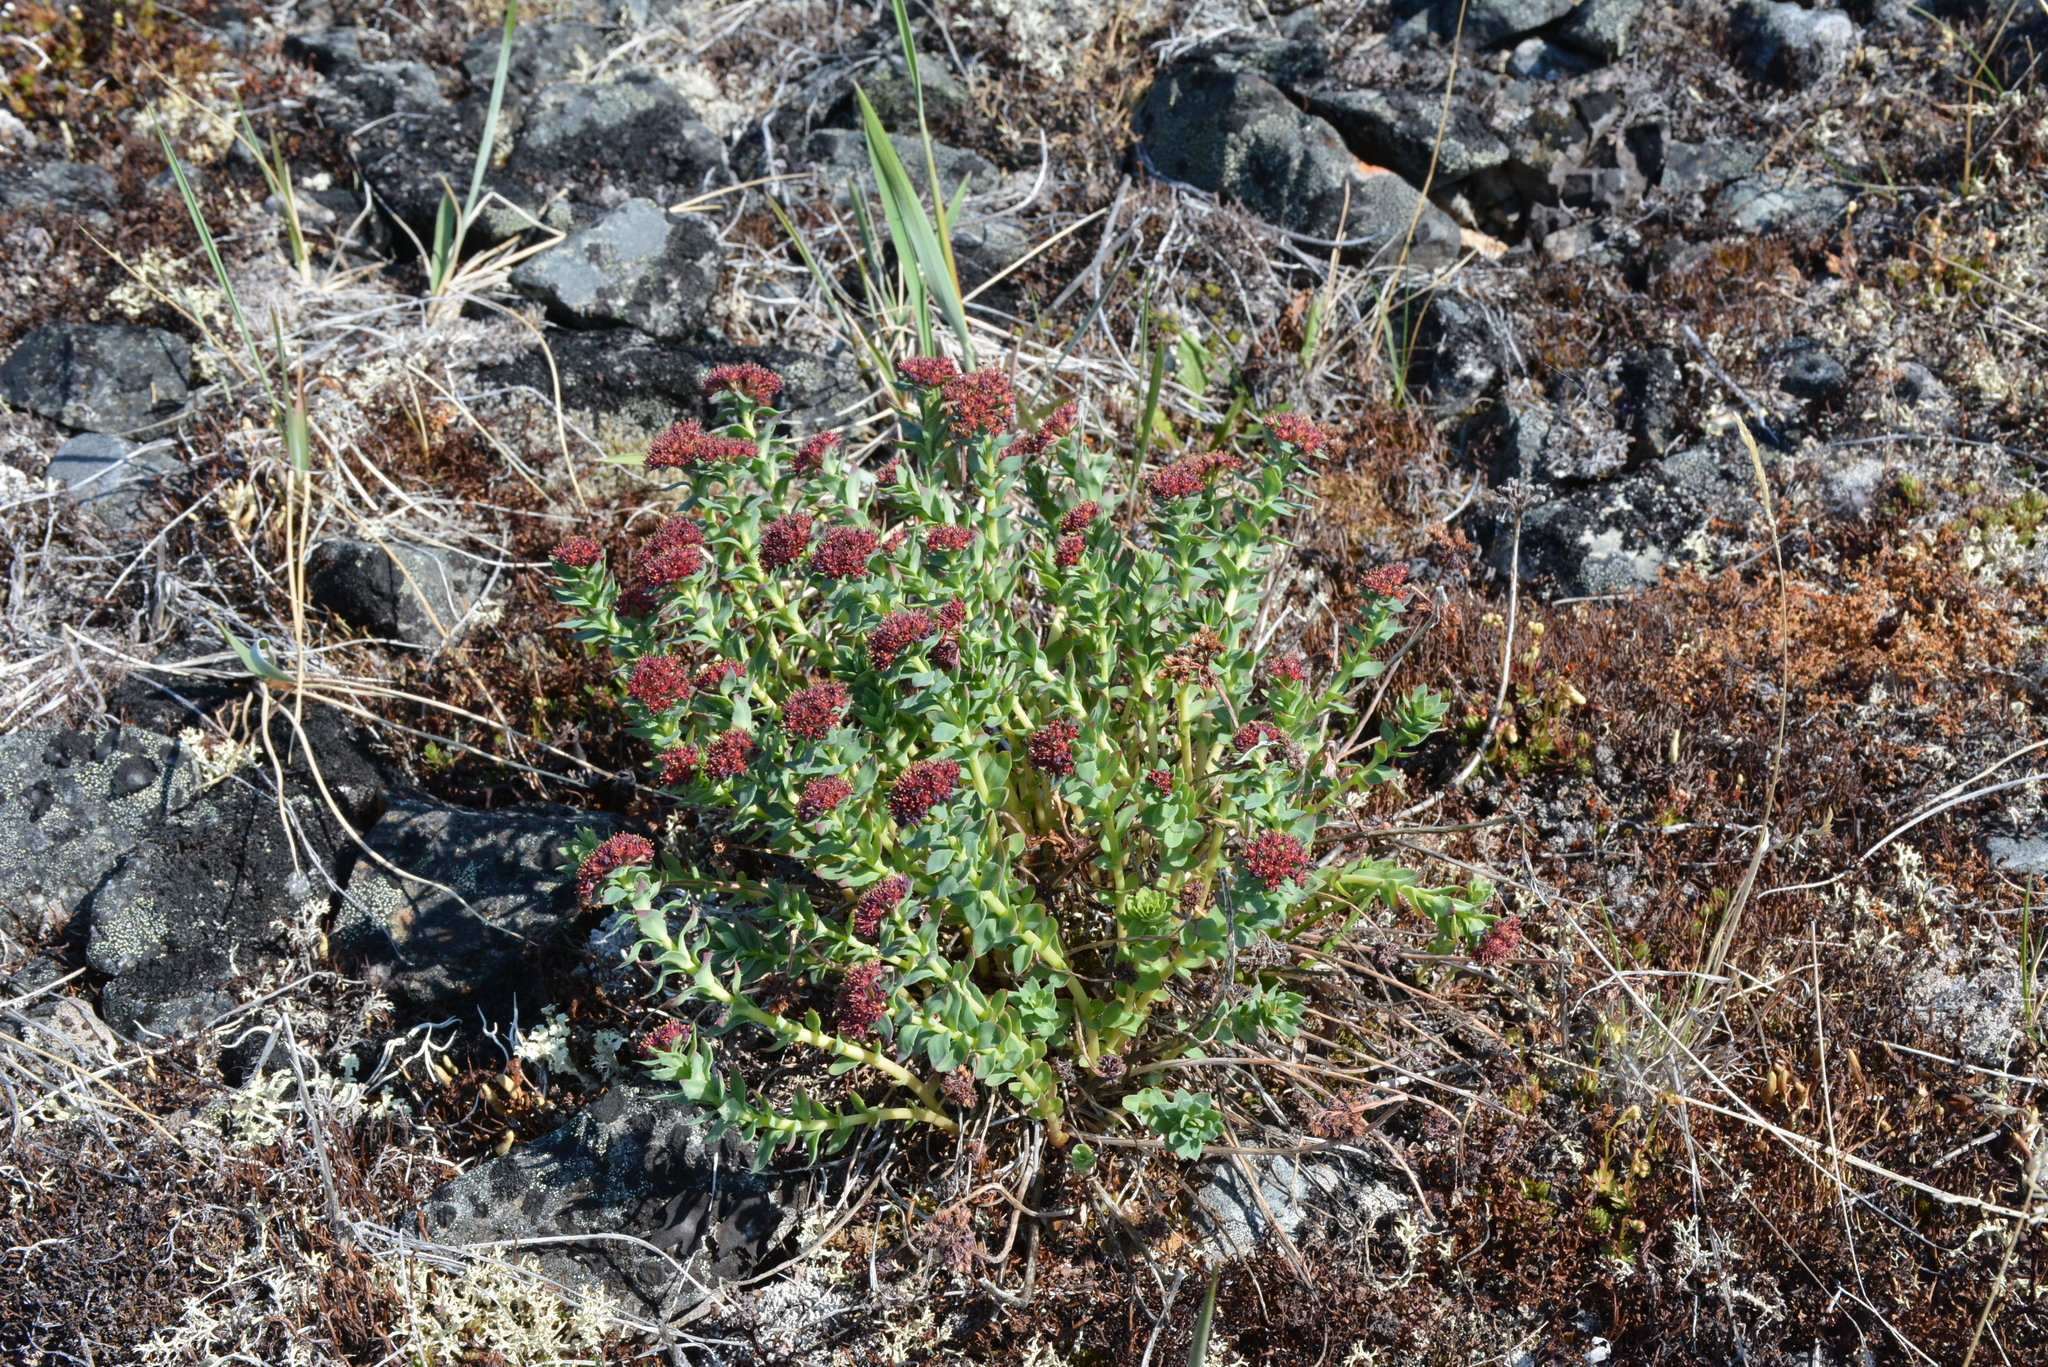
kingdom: Plantae
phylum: Tracheophyta
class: Magnoliopsida
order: Saxifragales
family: Crassulaceae
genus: Rhodiola
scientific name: Rhodiola integrifolia
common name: Western roseroot
